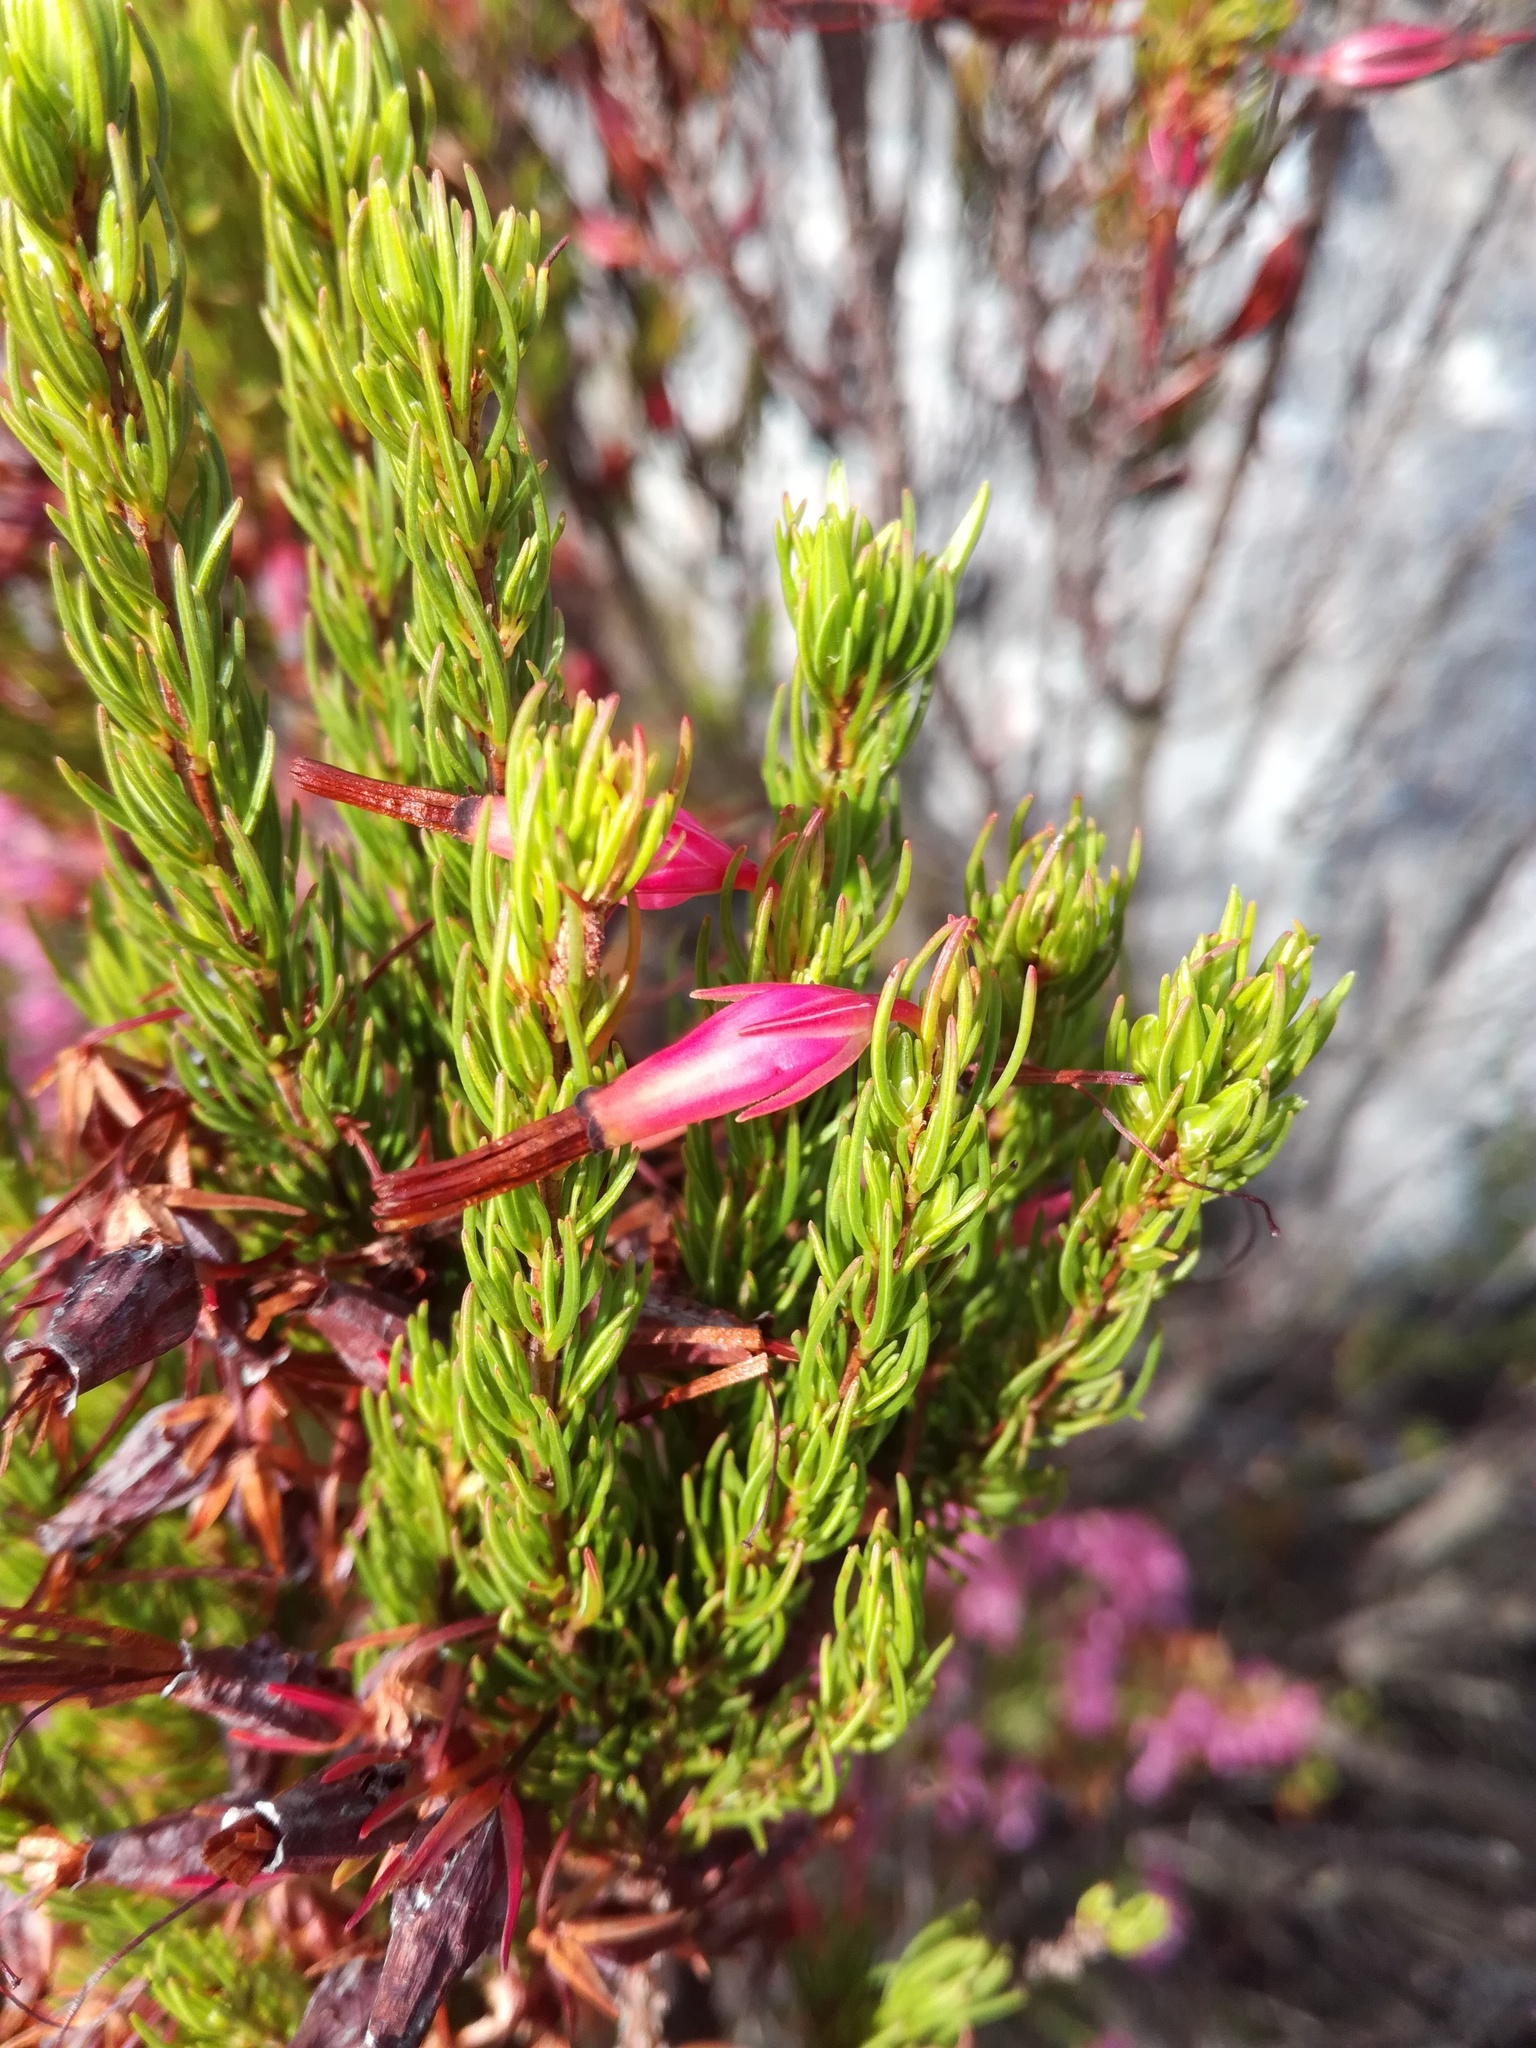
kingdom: Plantae
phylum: Tracheophyta
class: Magnoliopsida
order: Ericales
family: Ericaceae
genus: Erica
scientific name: Erica plukenetii
